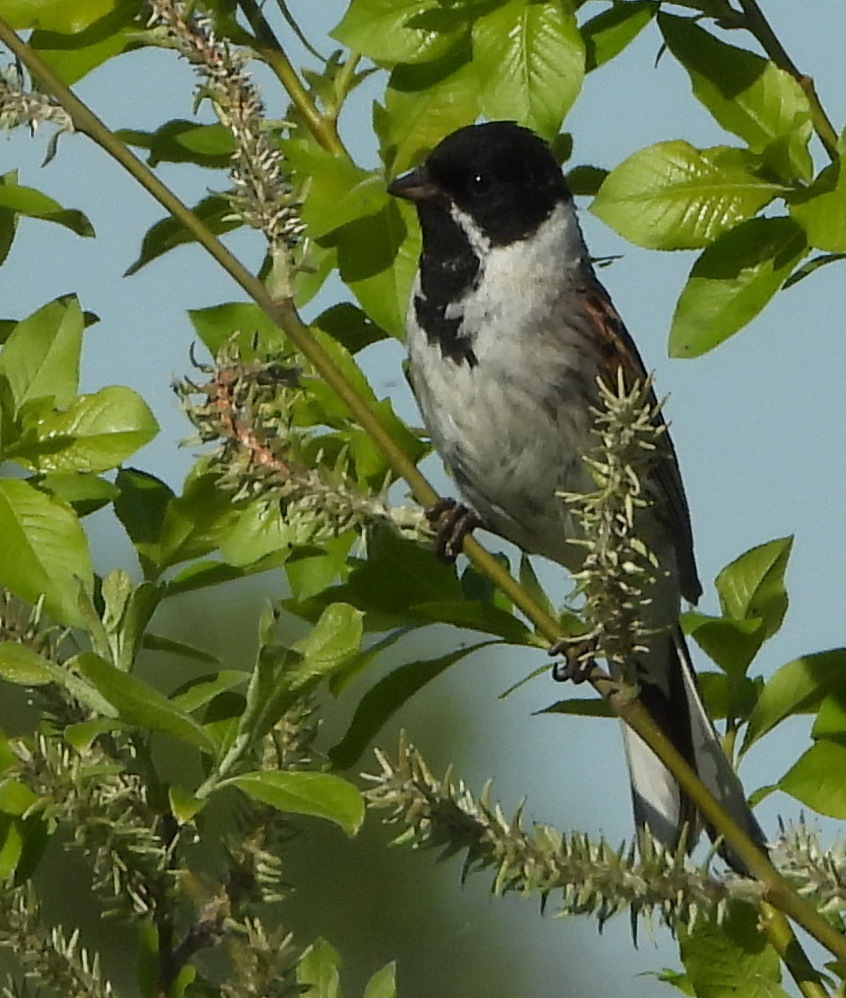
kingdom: Animalia
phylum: Chordata
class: Aves
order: Passeriformes
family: Emberizidae
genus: Emberiza
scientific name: Emberiza schoeniclus
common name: Reed bunting
